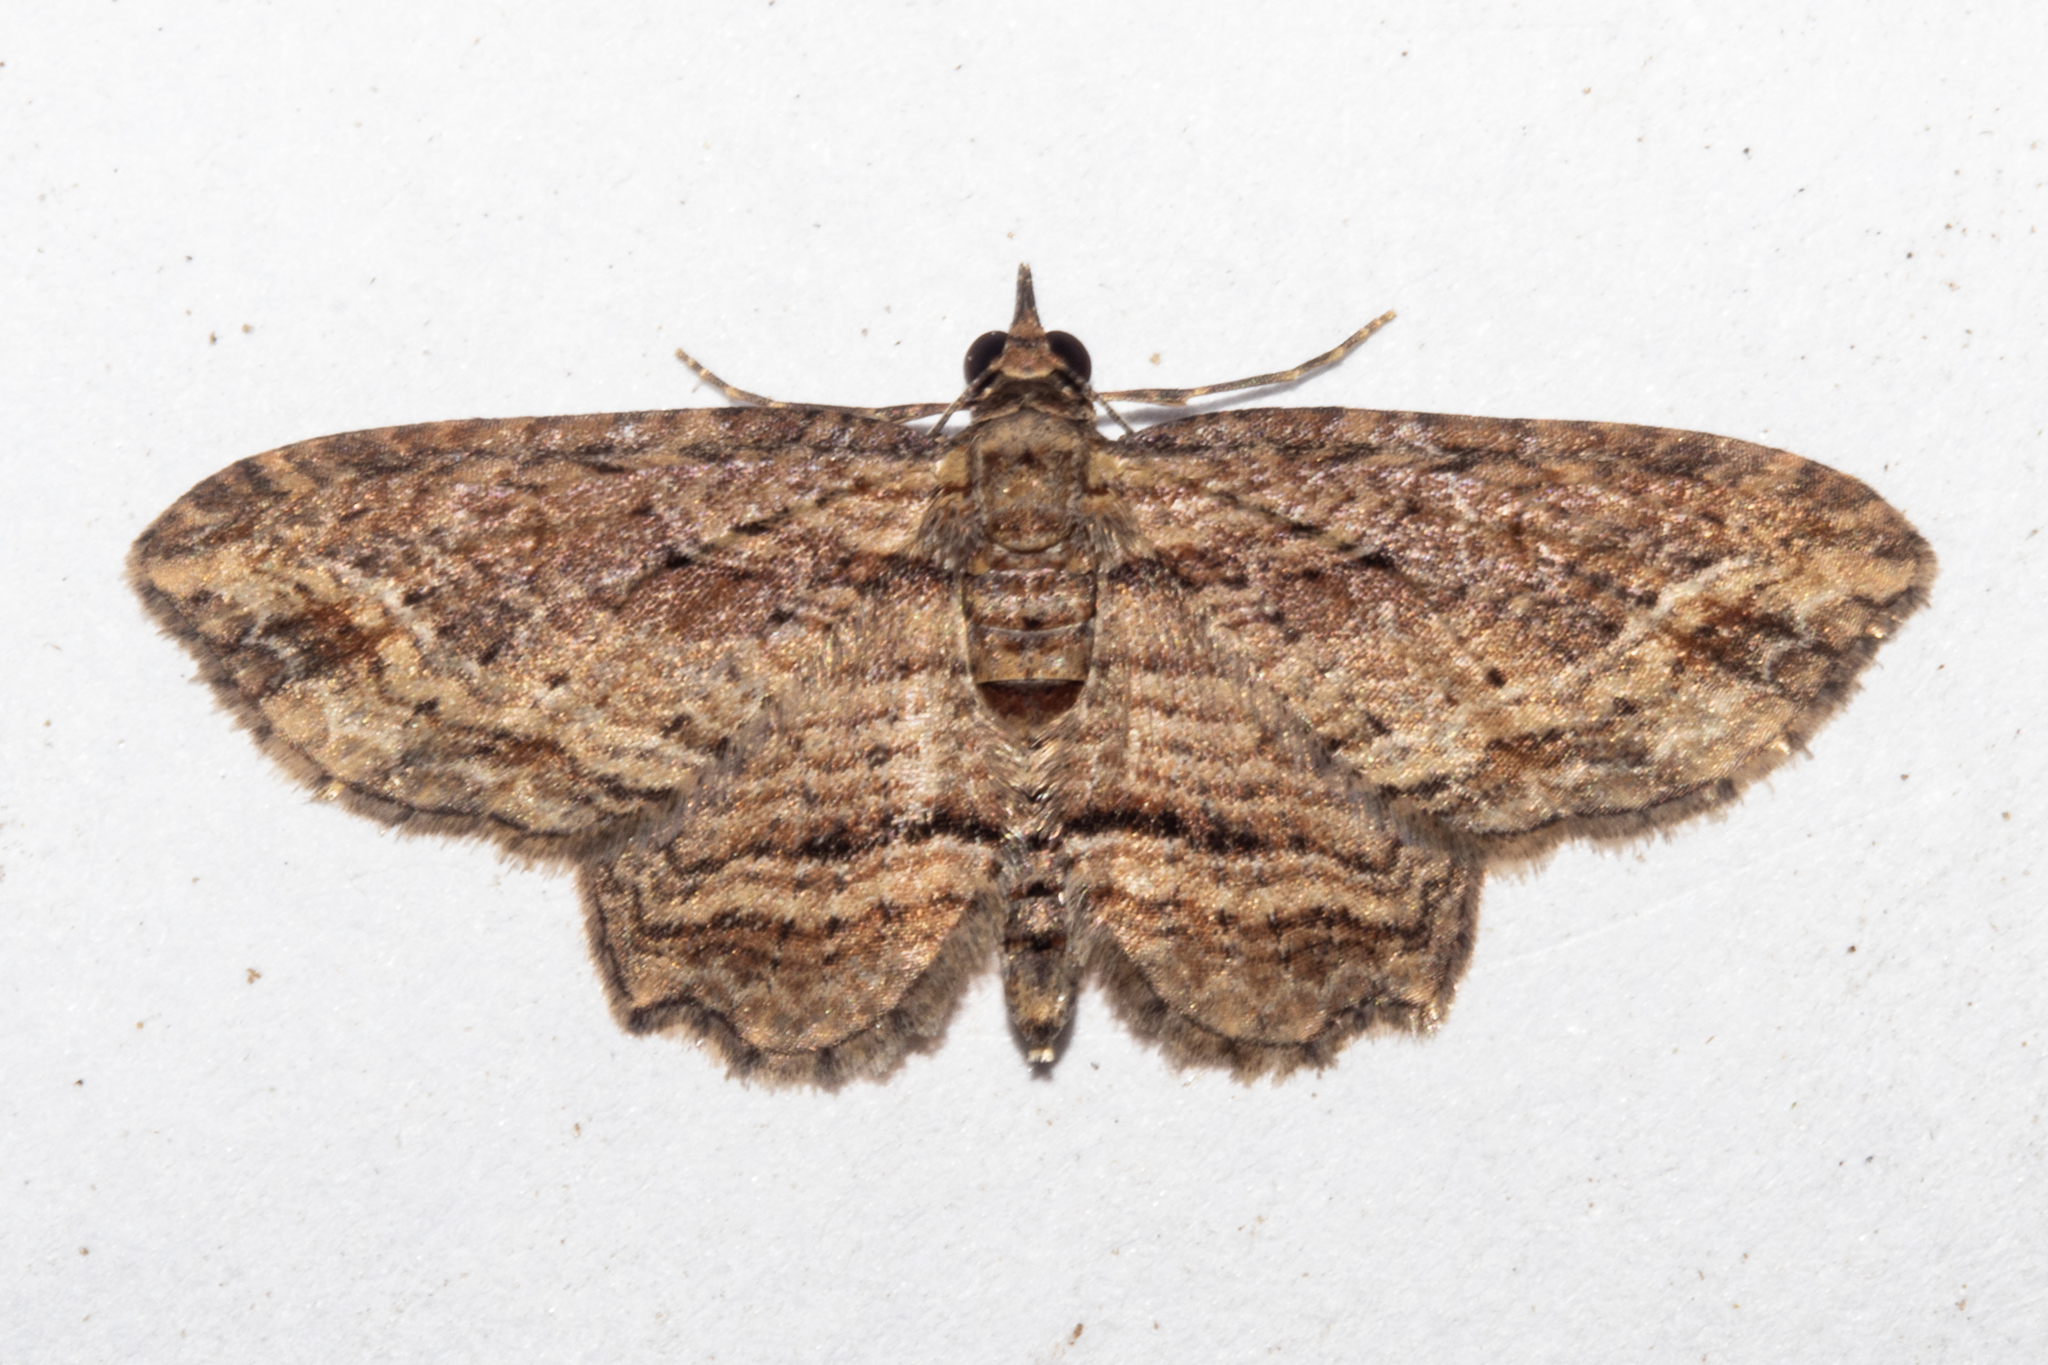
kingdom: Animalia
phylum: Arthropoda
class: Insecta
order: Lepidoptera
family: Geometridae
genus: Chloroclystis
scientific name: Chloroclystis filata
